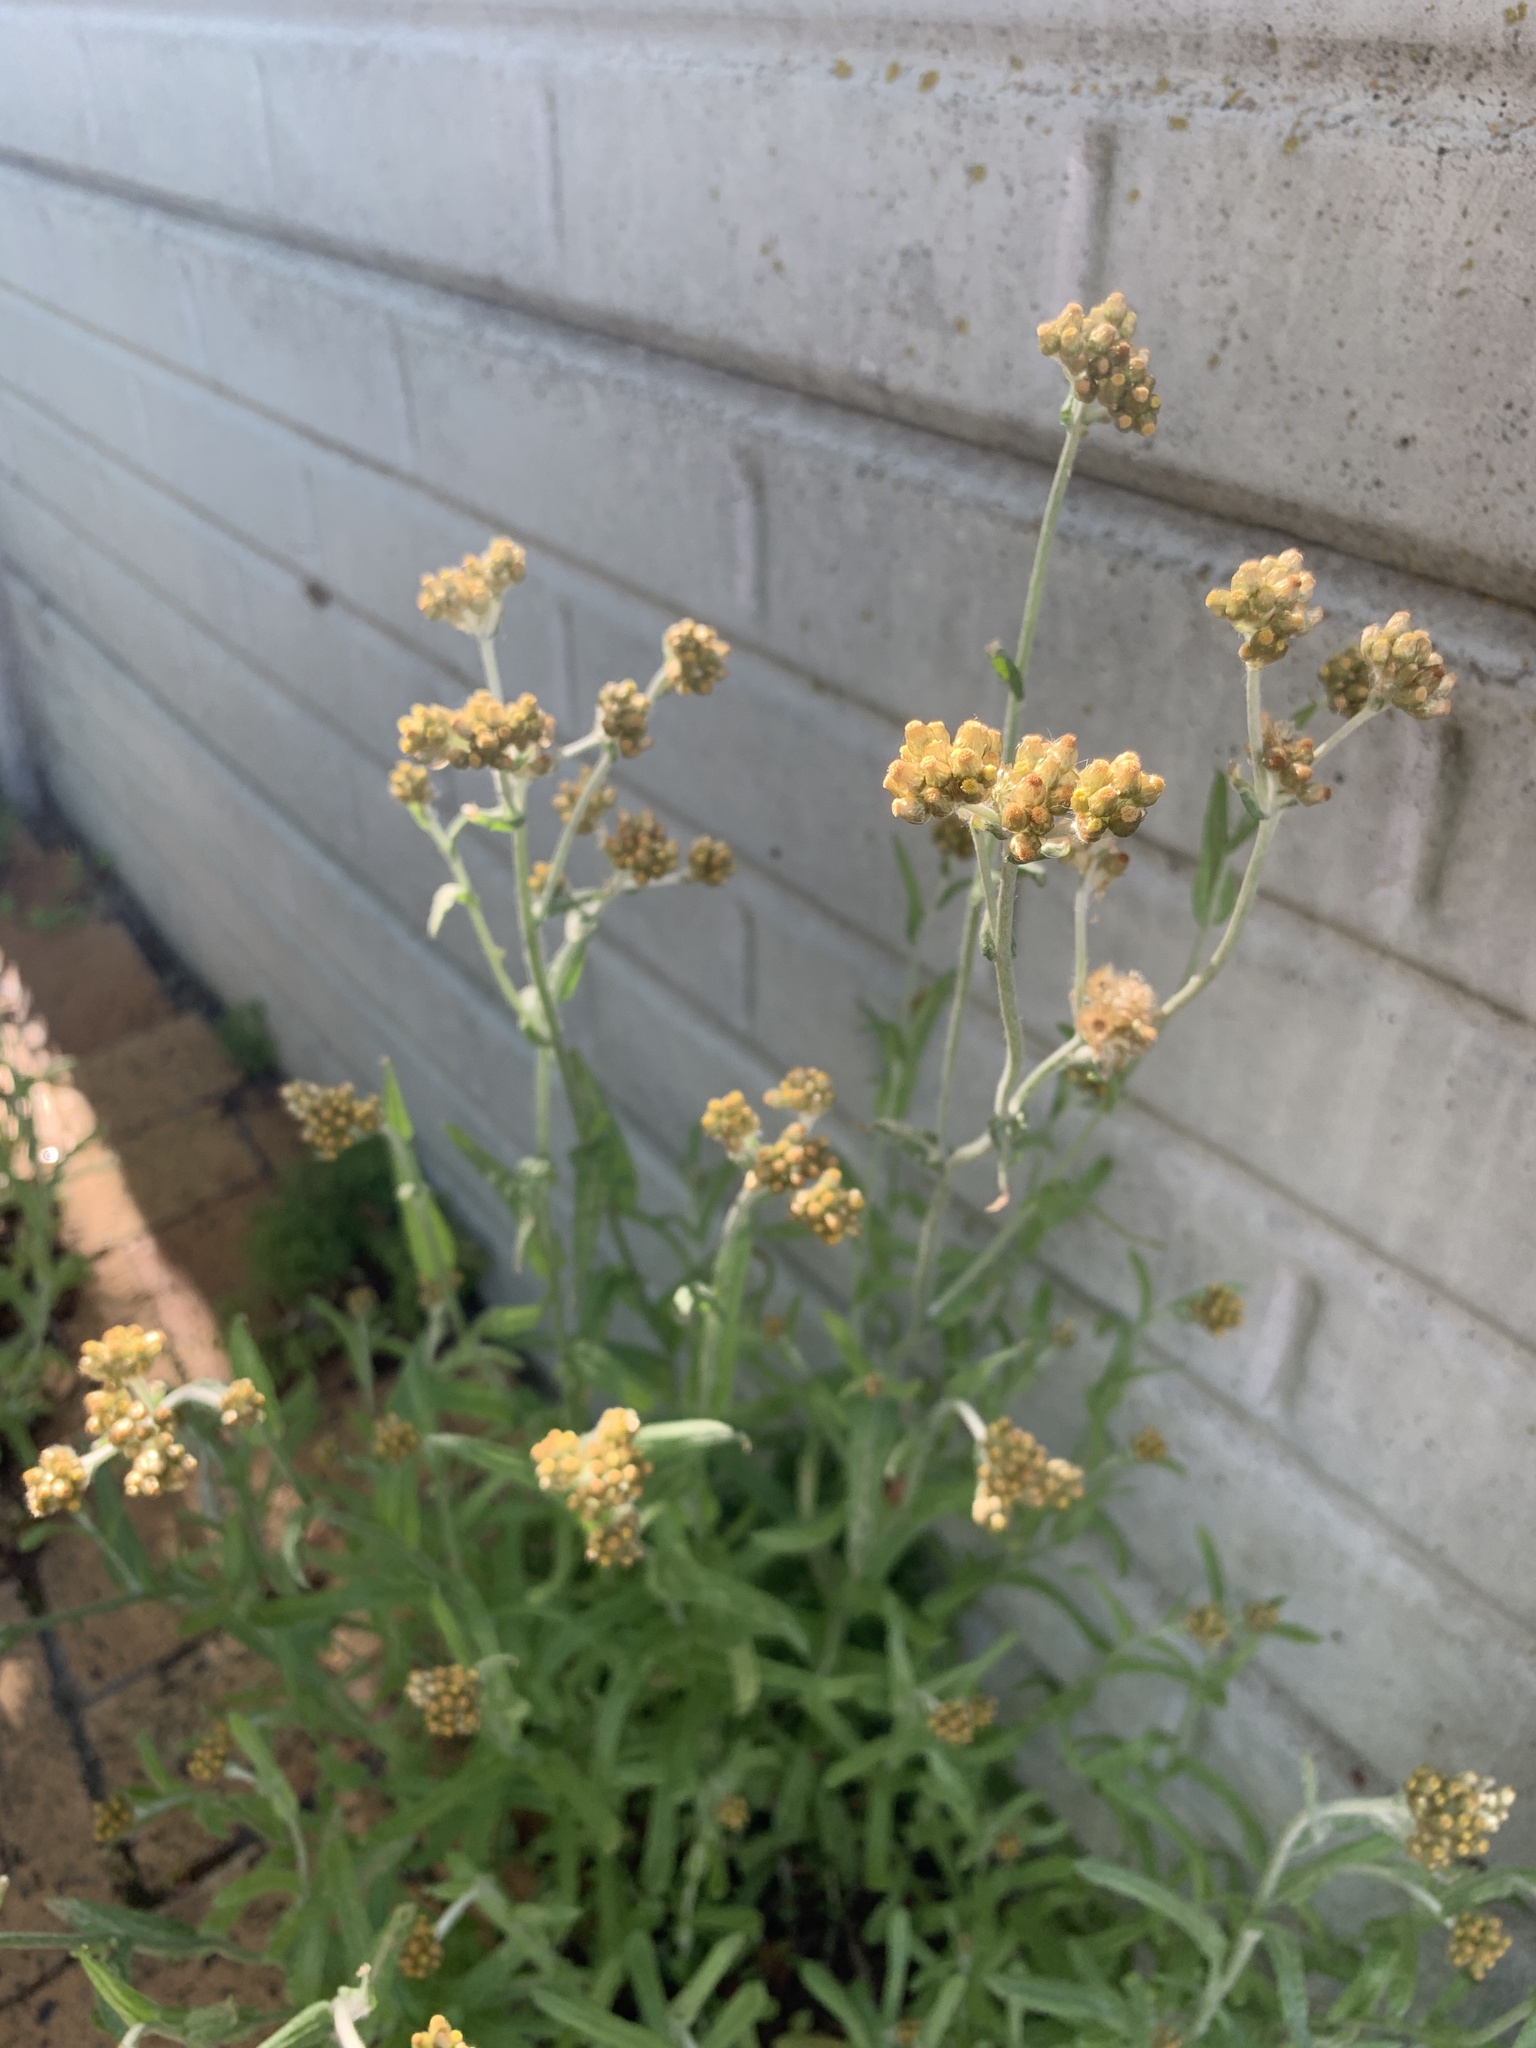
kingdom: Plantae
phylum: Tracheophyta
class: Magnoliopsida
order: Asterales
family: Asteraceae
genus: Helichrysum
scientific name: Helichrysum luteoalbum
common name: Daisy
